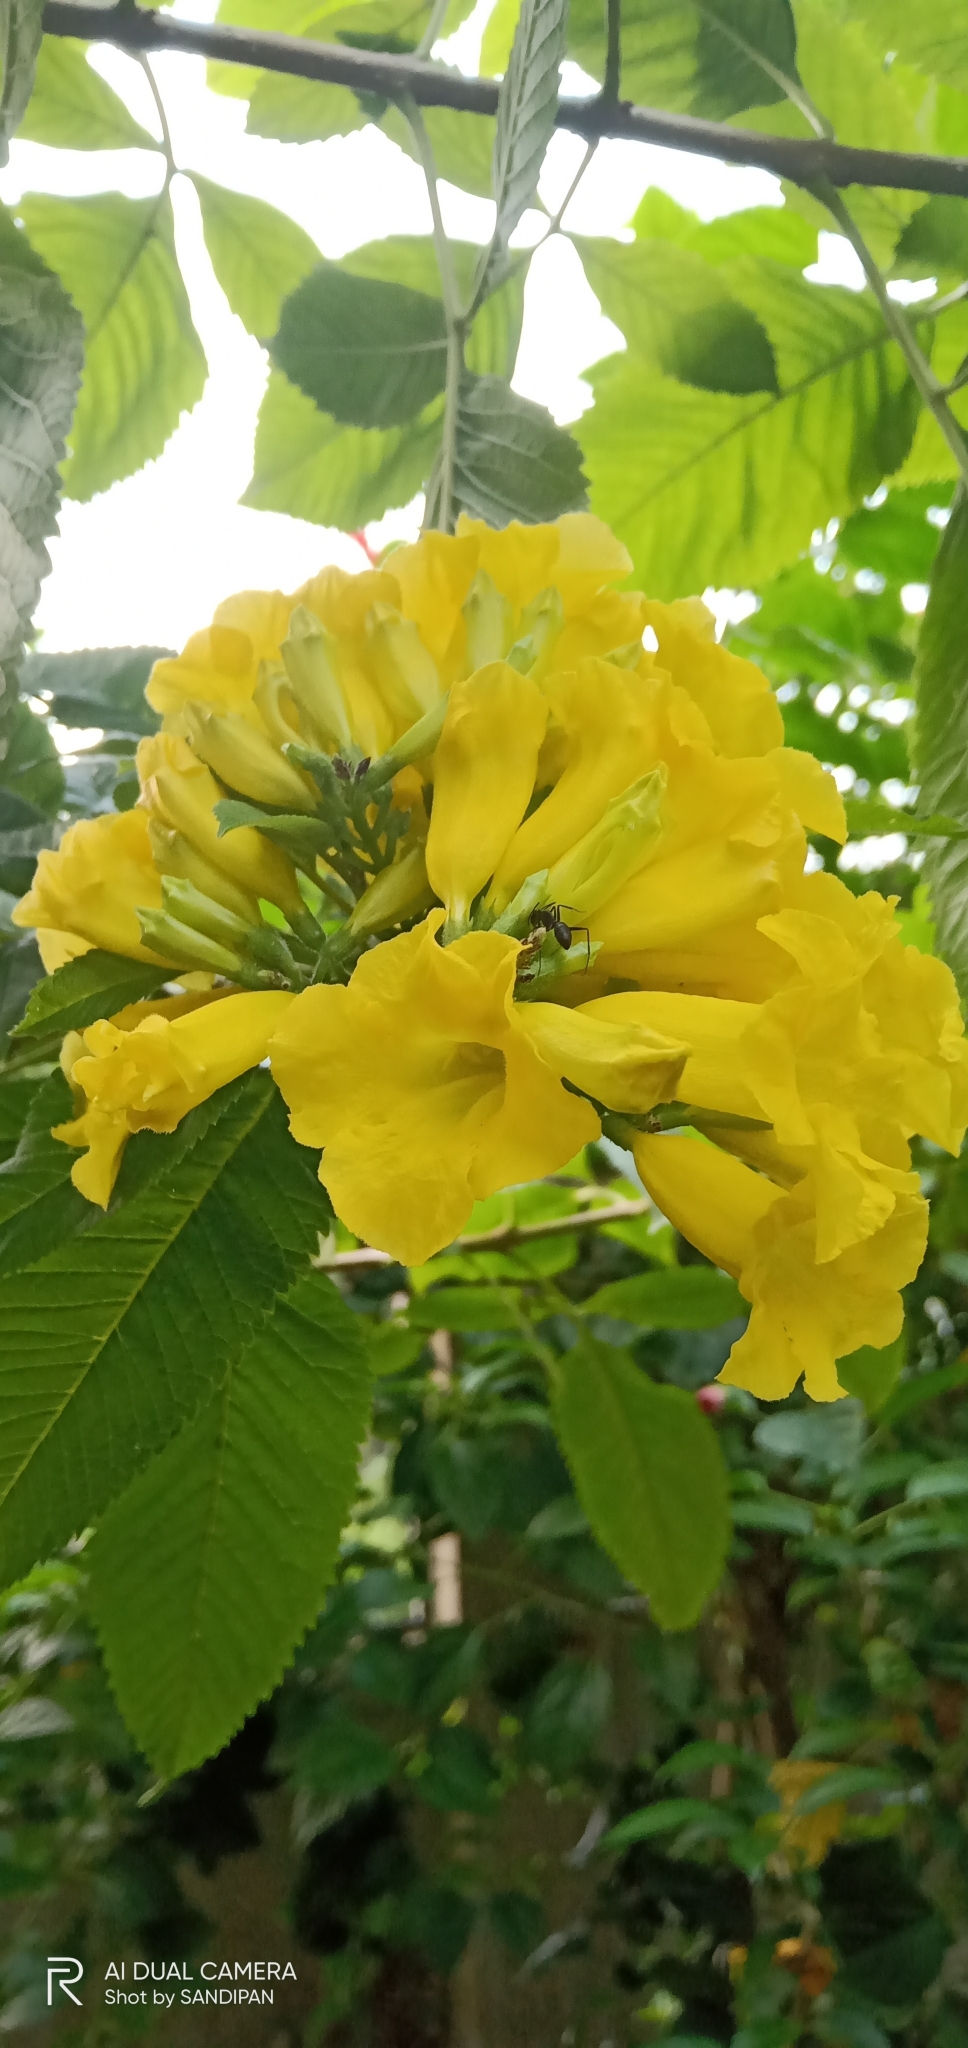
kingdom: Plantae
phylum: Tracheophyta
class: Magnoliopsida
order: Lamiales
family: Bignoniaceae
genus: Tecoma
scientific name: Tecoma stans
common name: Yellow trumpetbush
